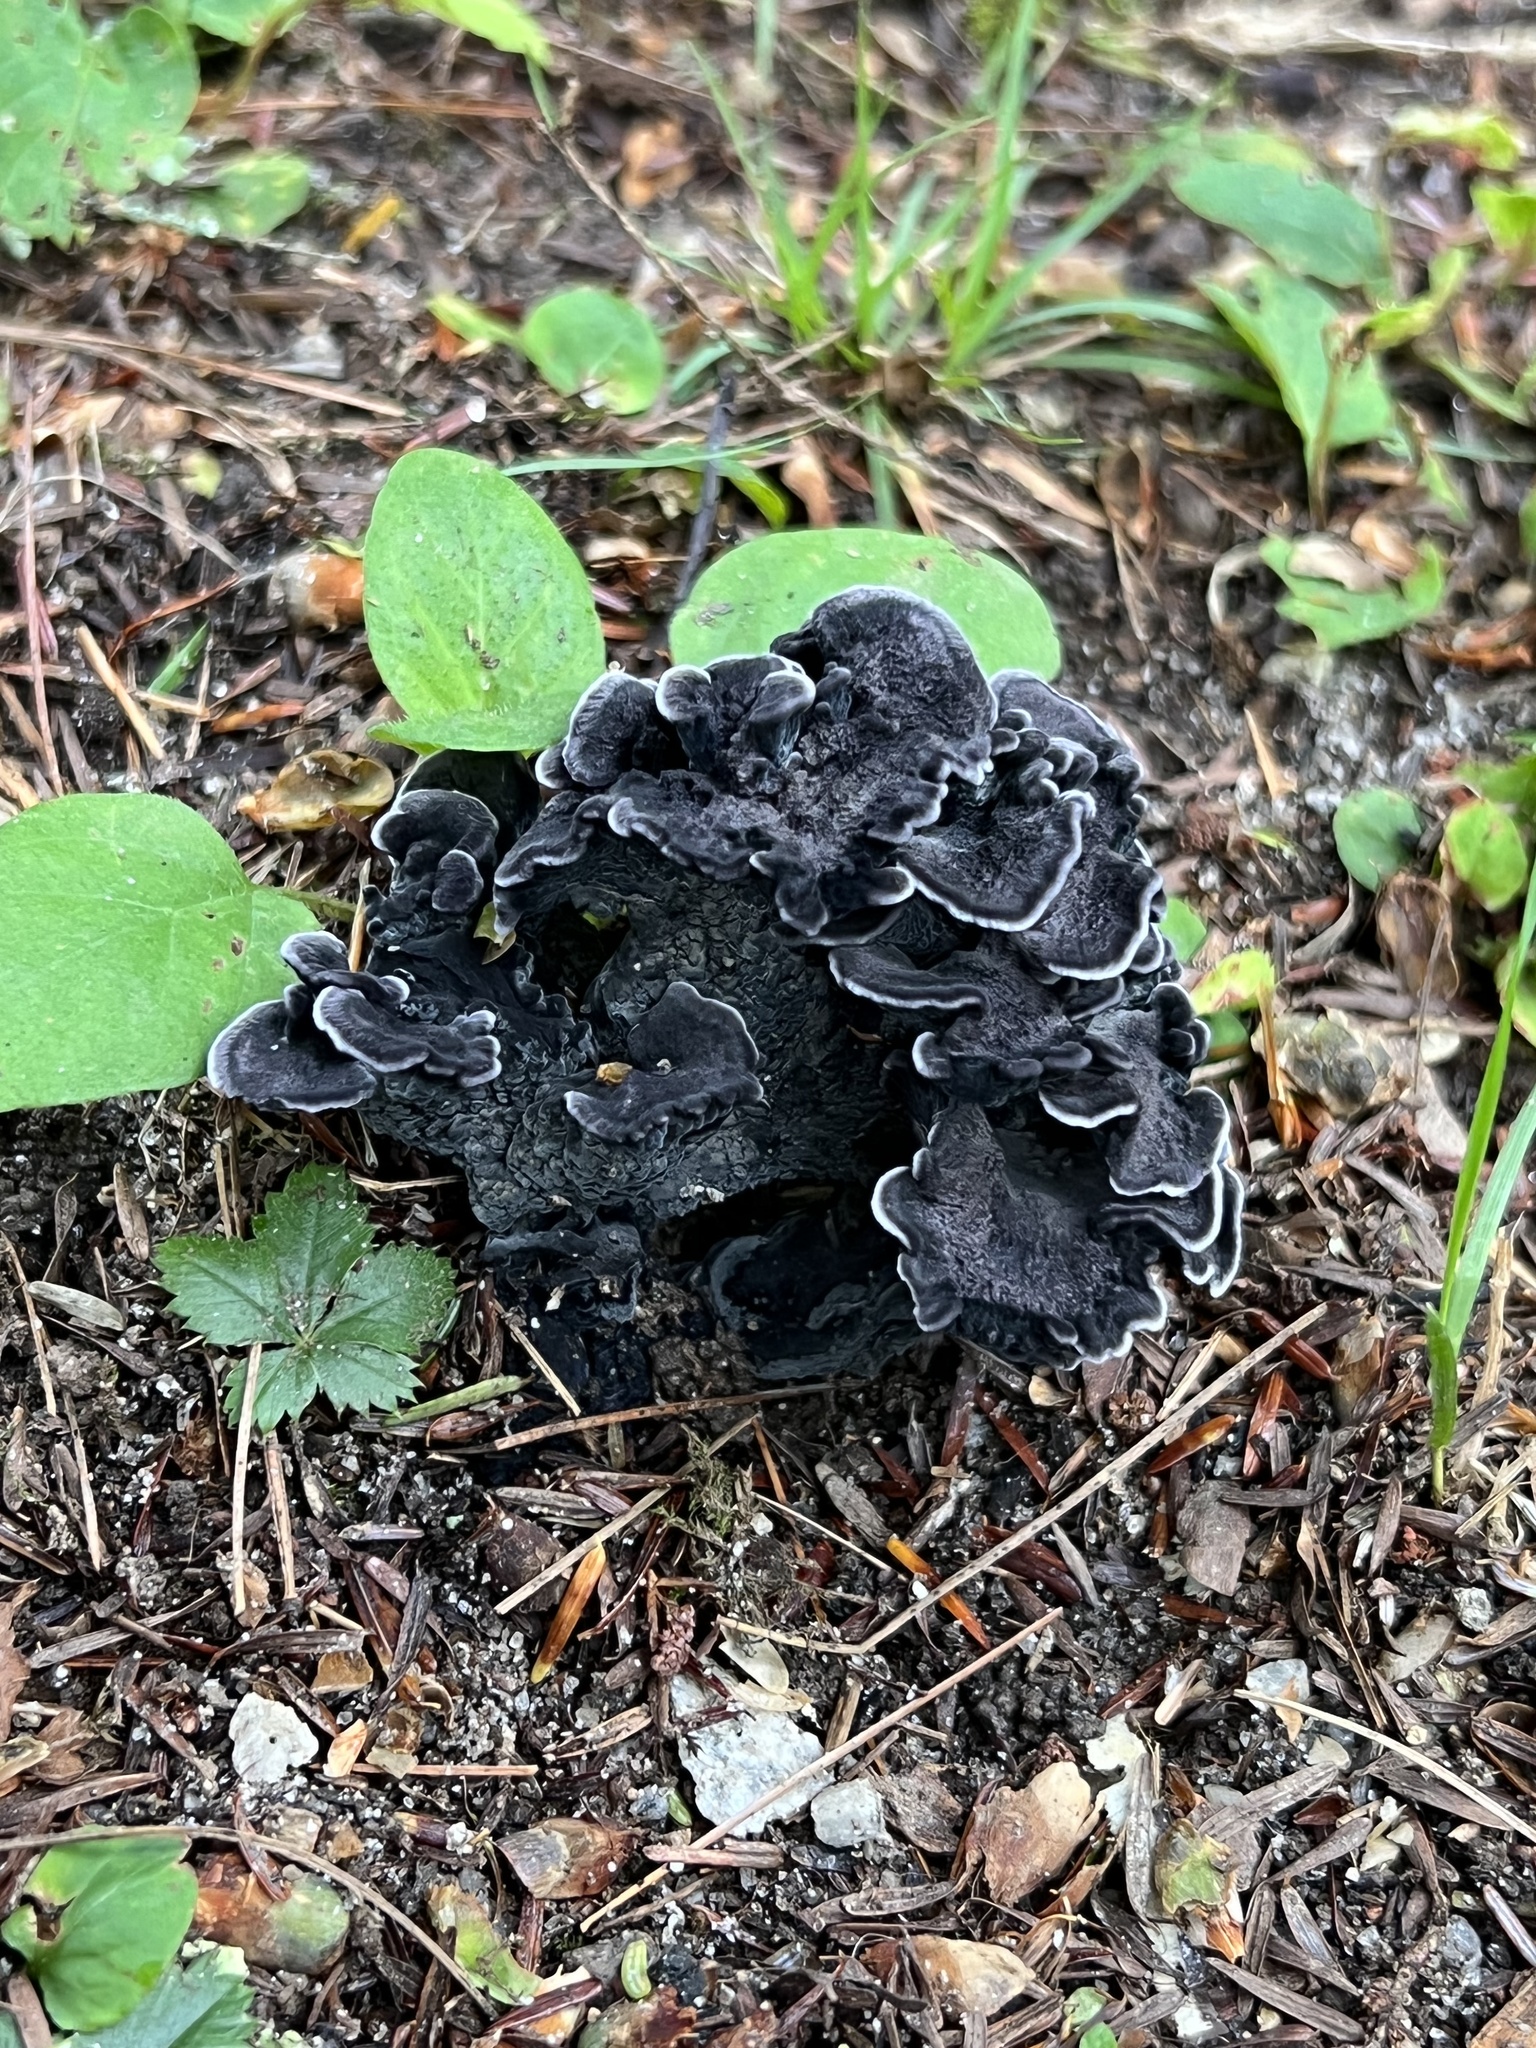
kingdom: Fungi
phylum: Basidiomycota
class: Agaricomycetes
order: Thelephorales
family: Thelephoraceae
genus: Polyozellus
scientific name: Polyozellus multiplex
